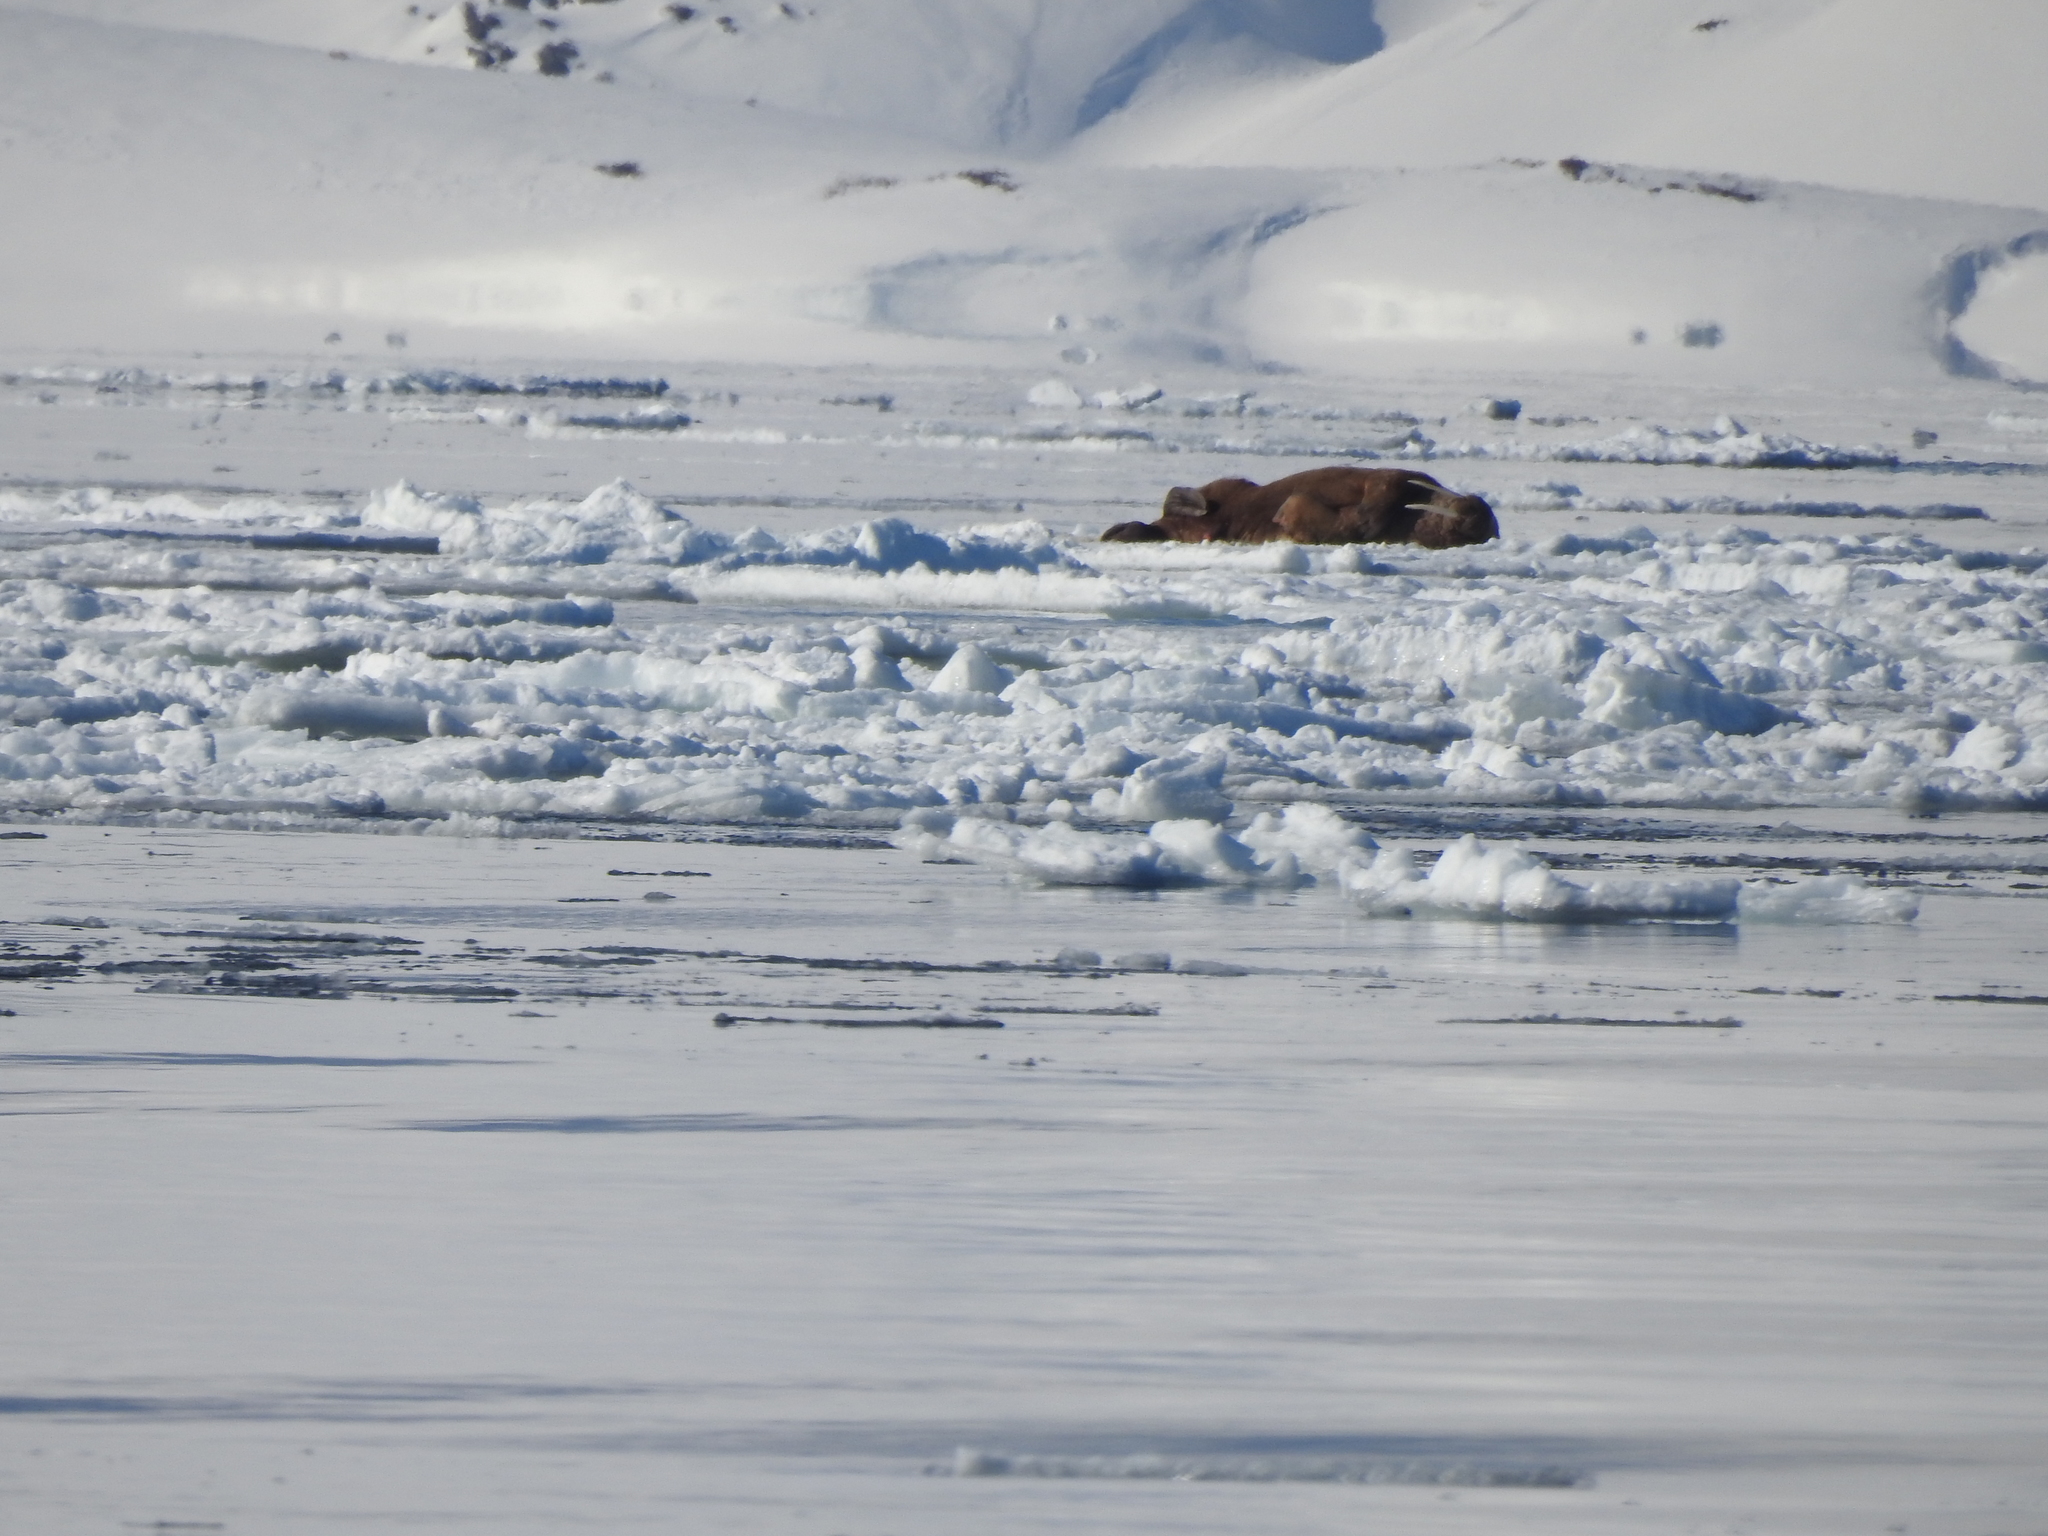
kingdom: Animalia
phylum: Chordata
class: Mammalia
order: Carnivora
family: Odobenidae
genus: Odobenus
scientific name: Odobenus rosmarus
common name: Walrus
